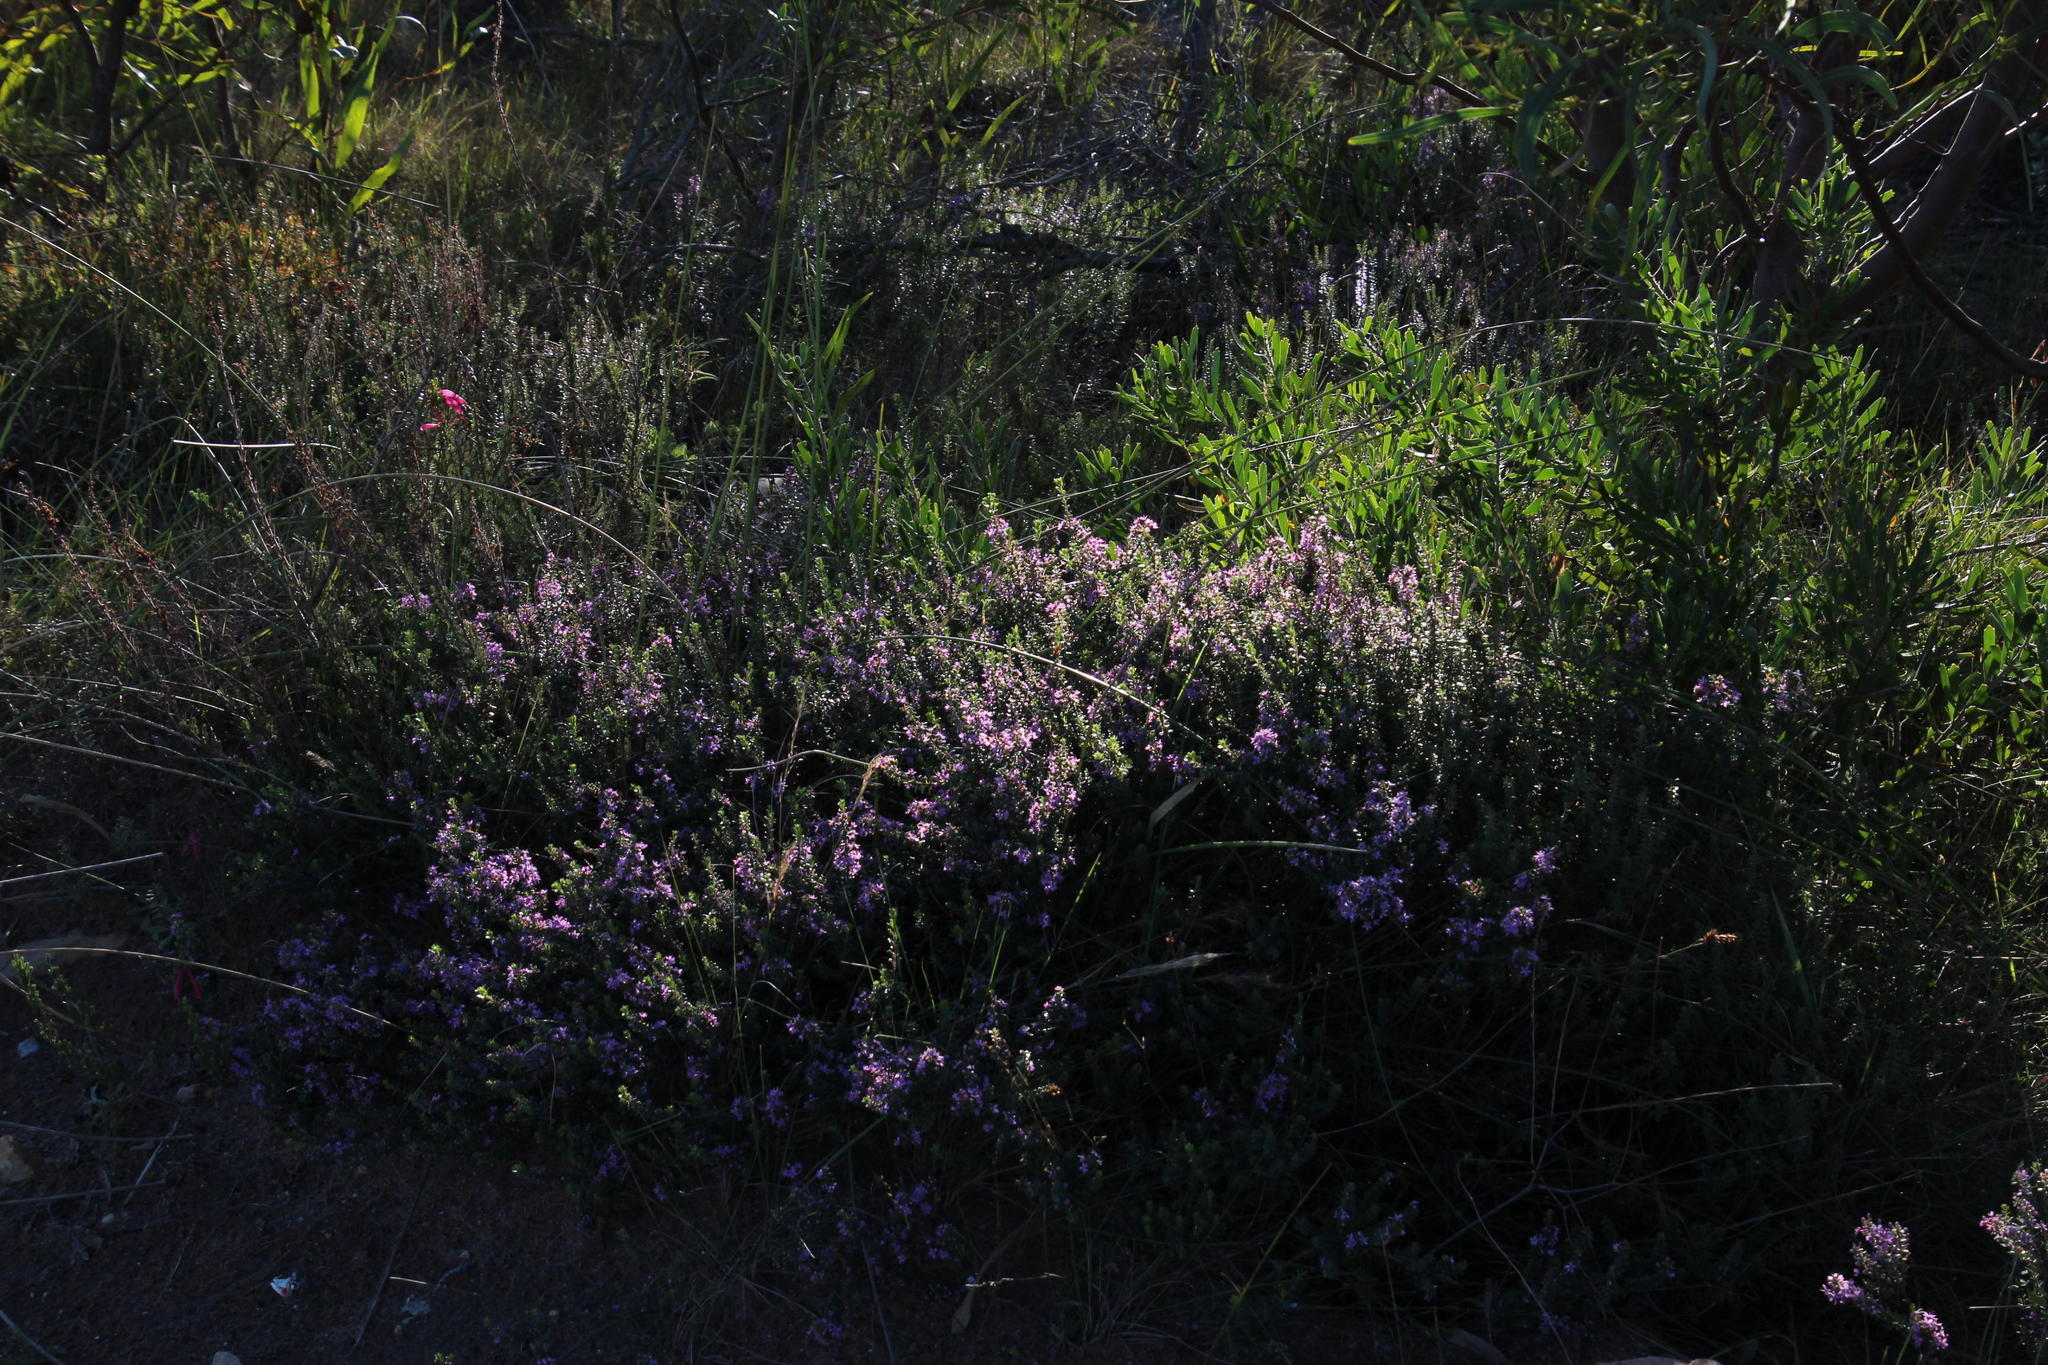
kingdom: Plantae
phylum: Tracheophyta
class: Magnoliopsida
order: Sapindales
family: Rutaceae
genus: Agathosma
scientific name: Agathosma ovata
